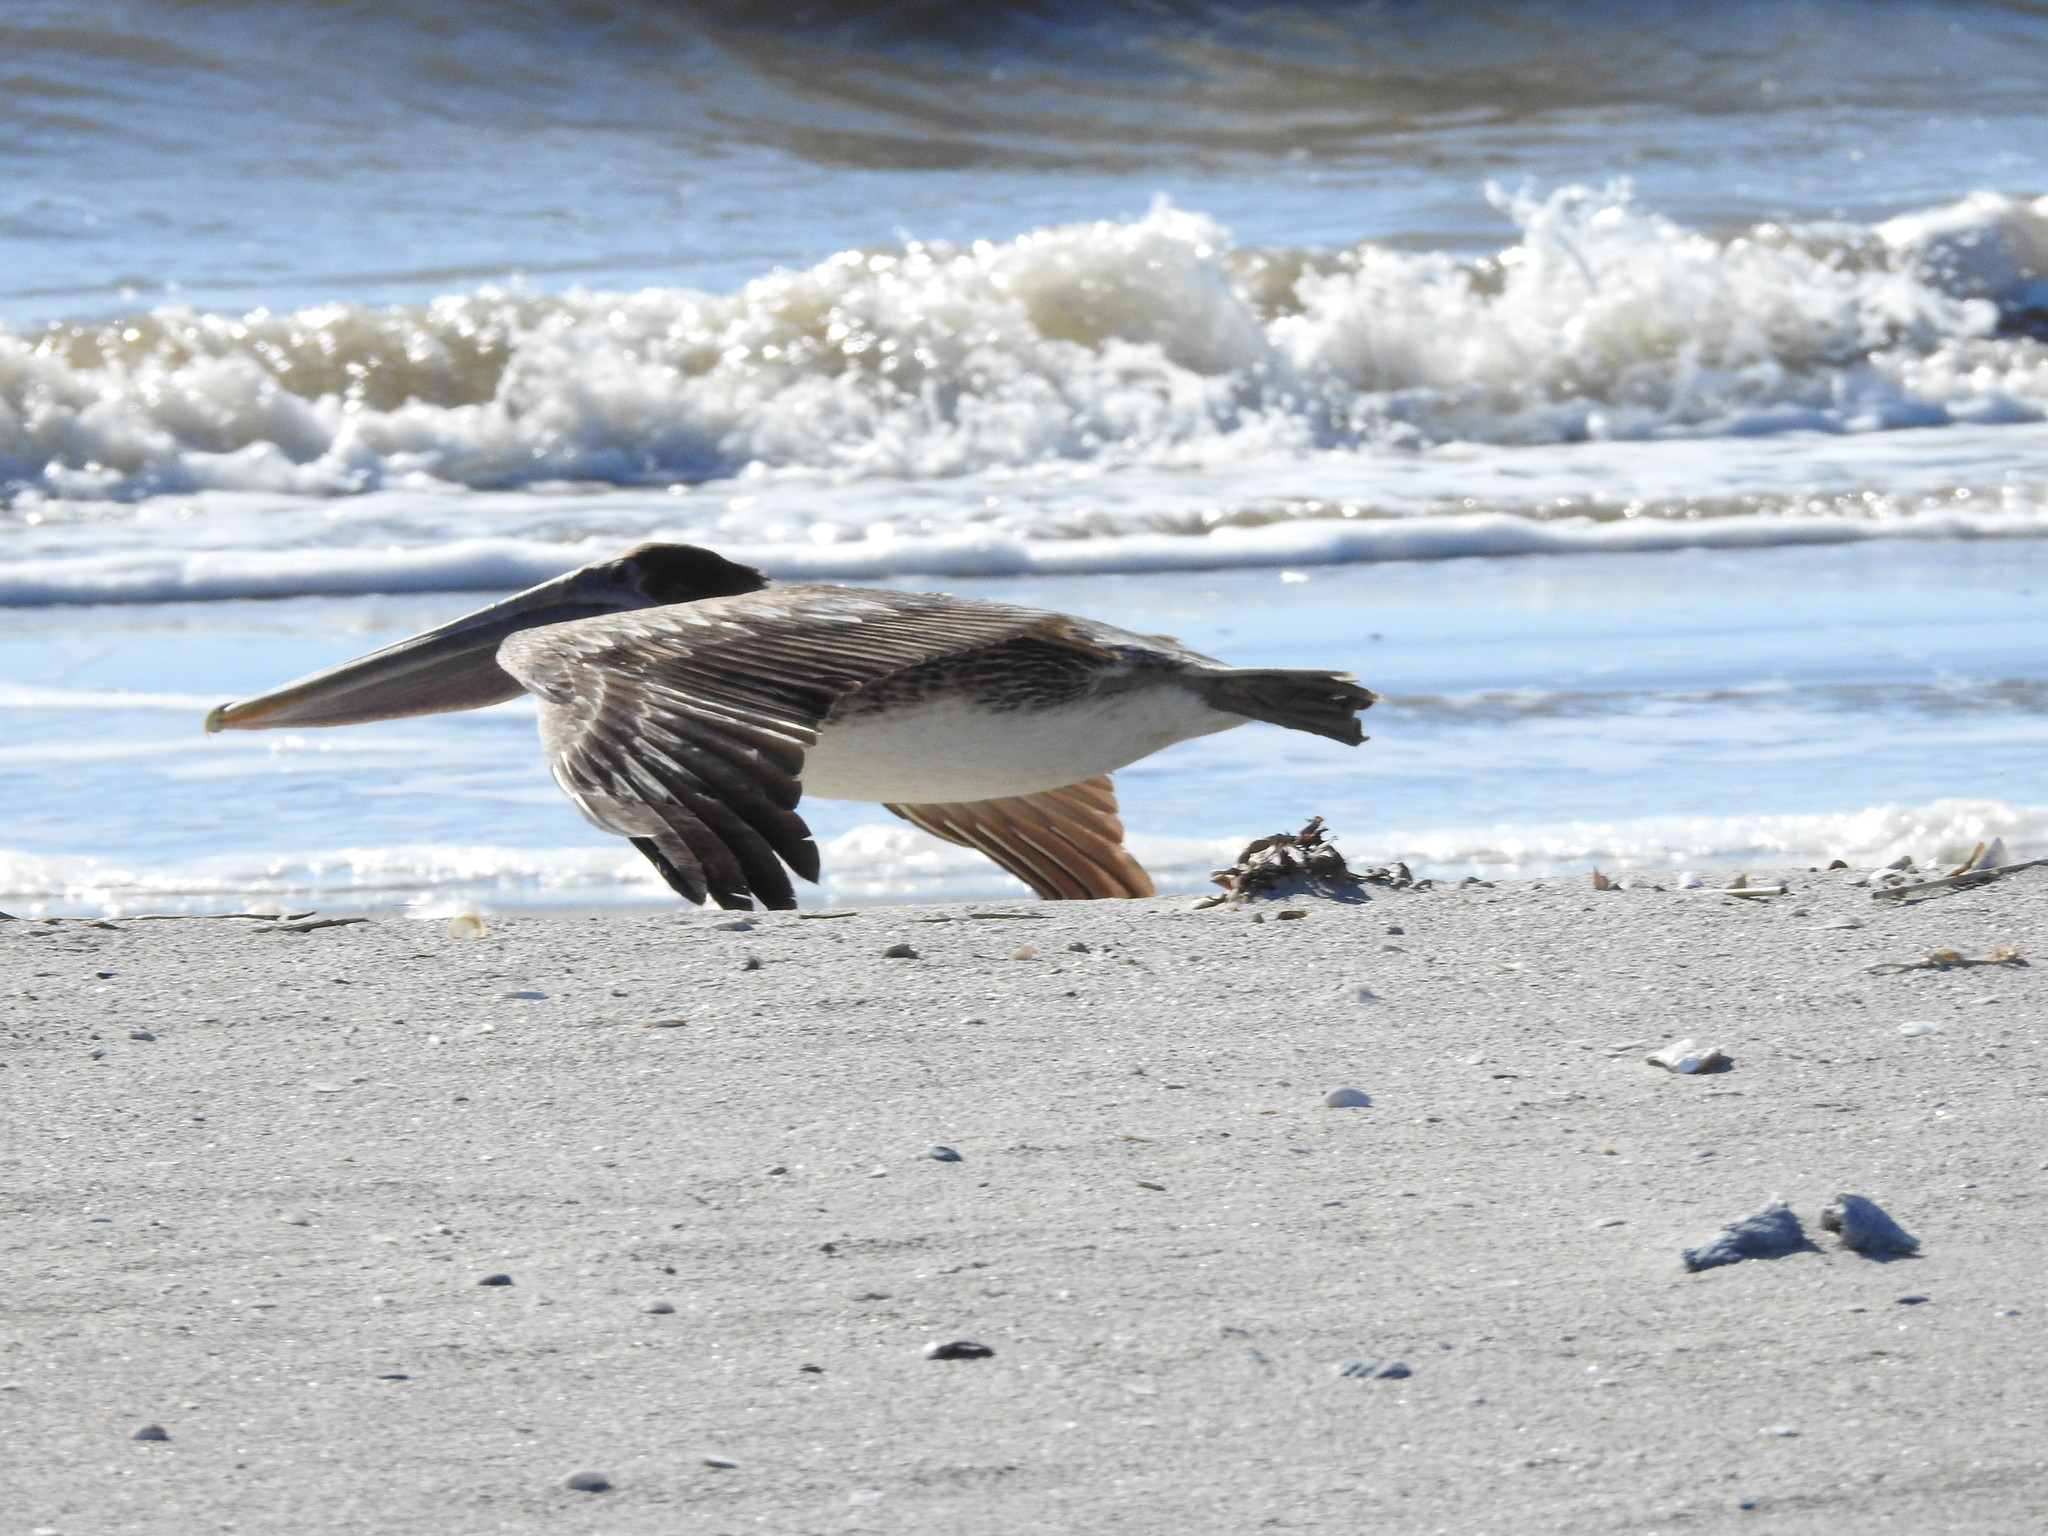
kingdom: Animalia
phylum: Chordata
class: Aves
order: Pelecaniformes
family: Pelecanidae
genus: Pelecanus
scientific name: Pelecanus occidentalis
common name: Brown pelican
